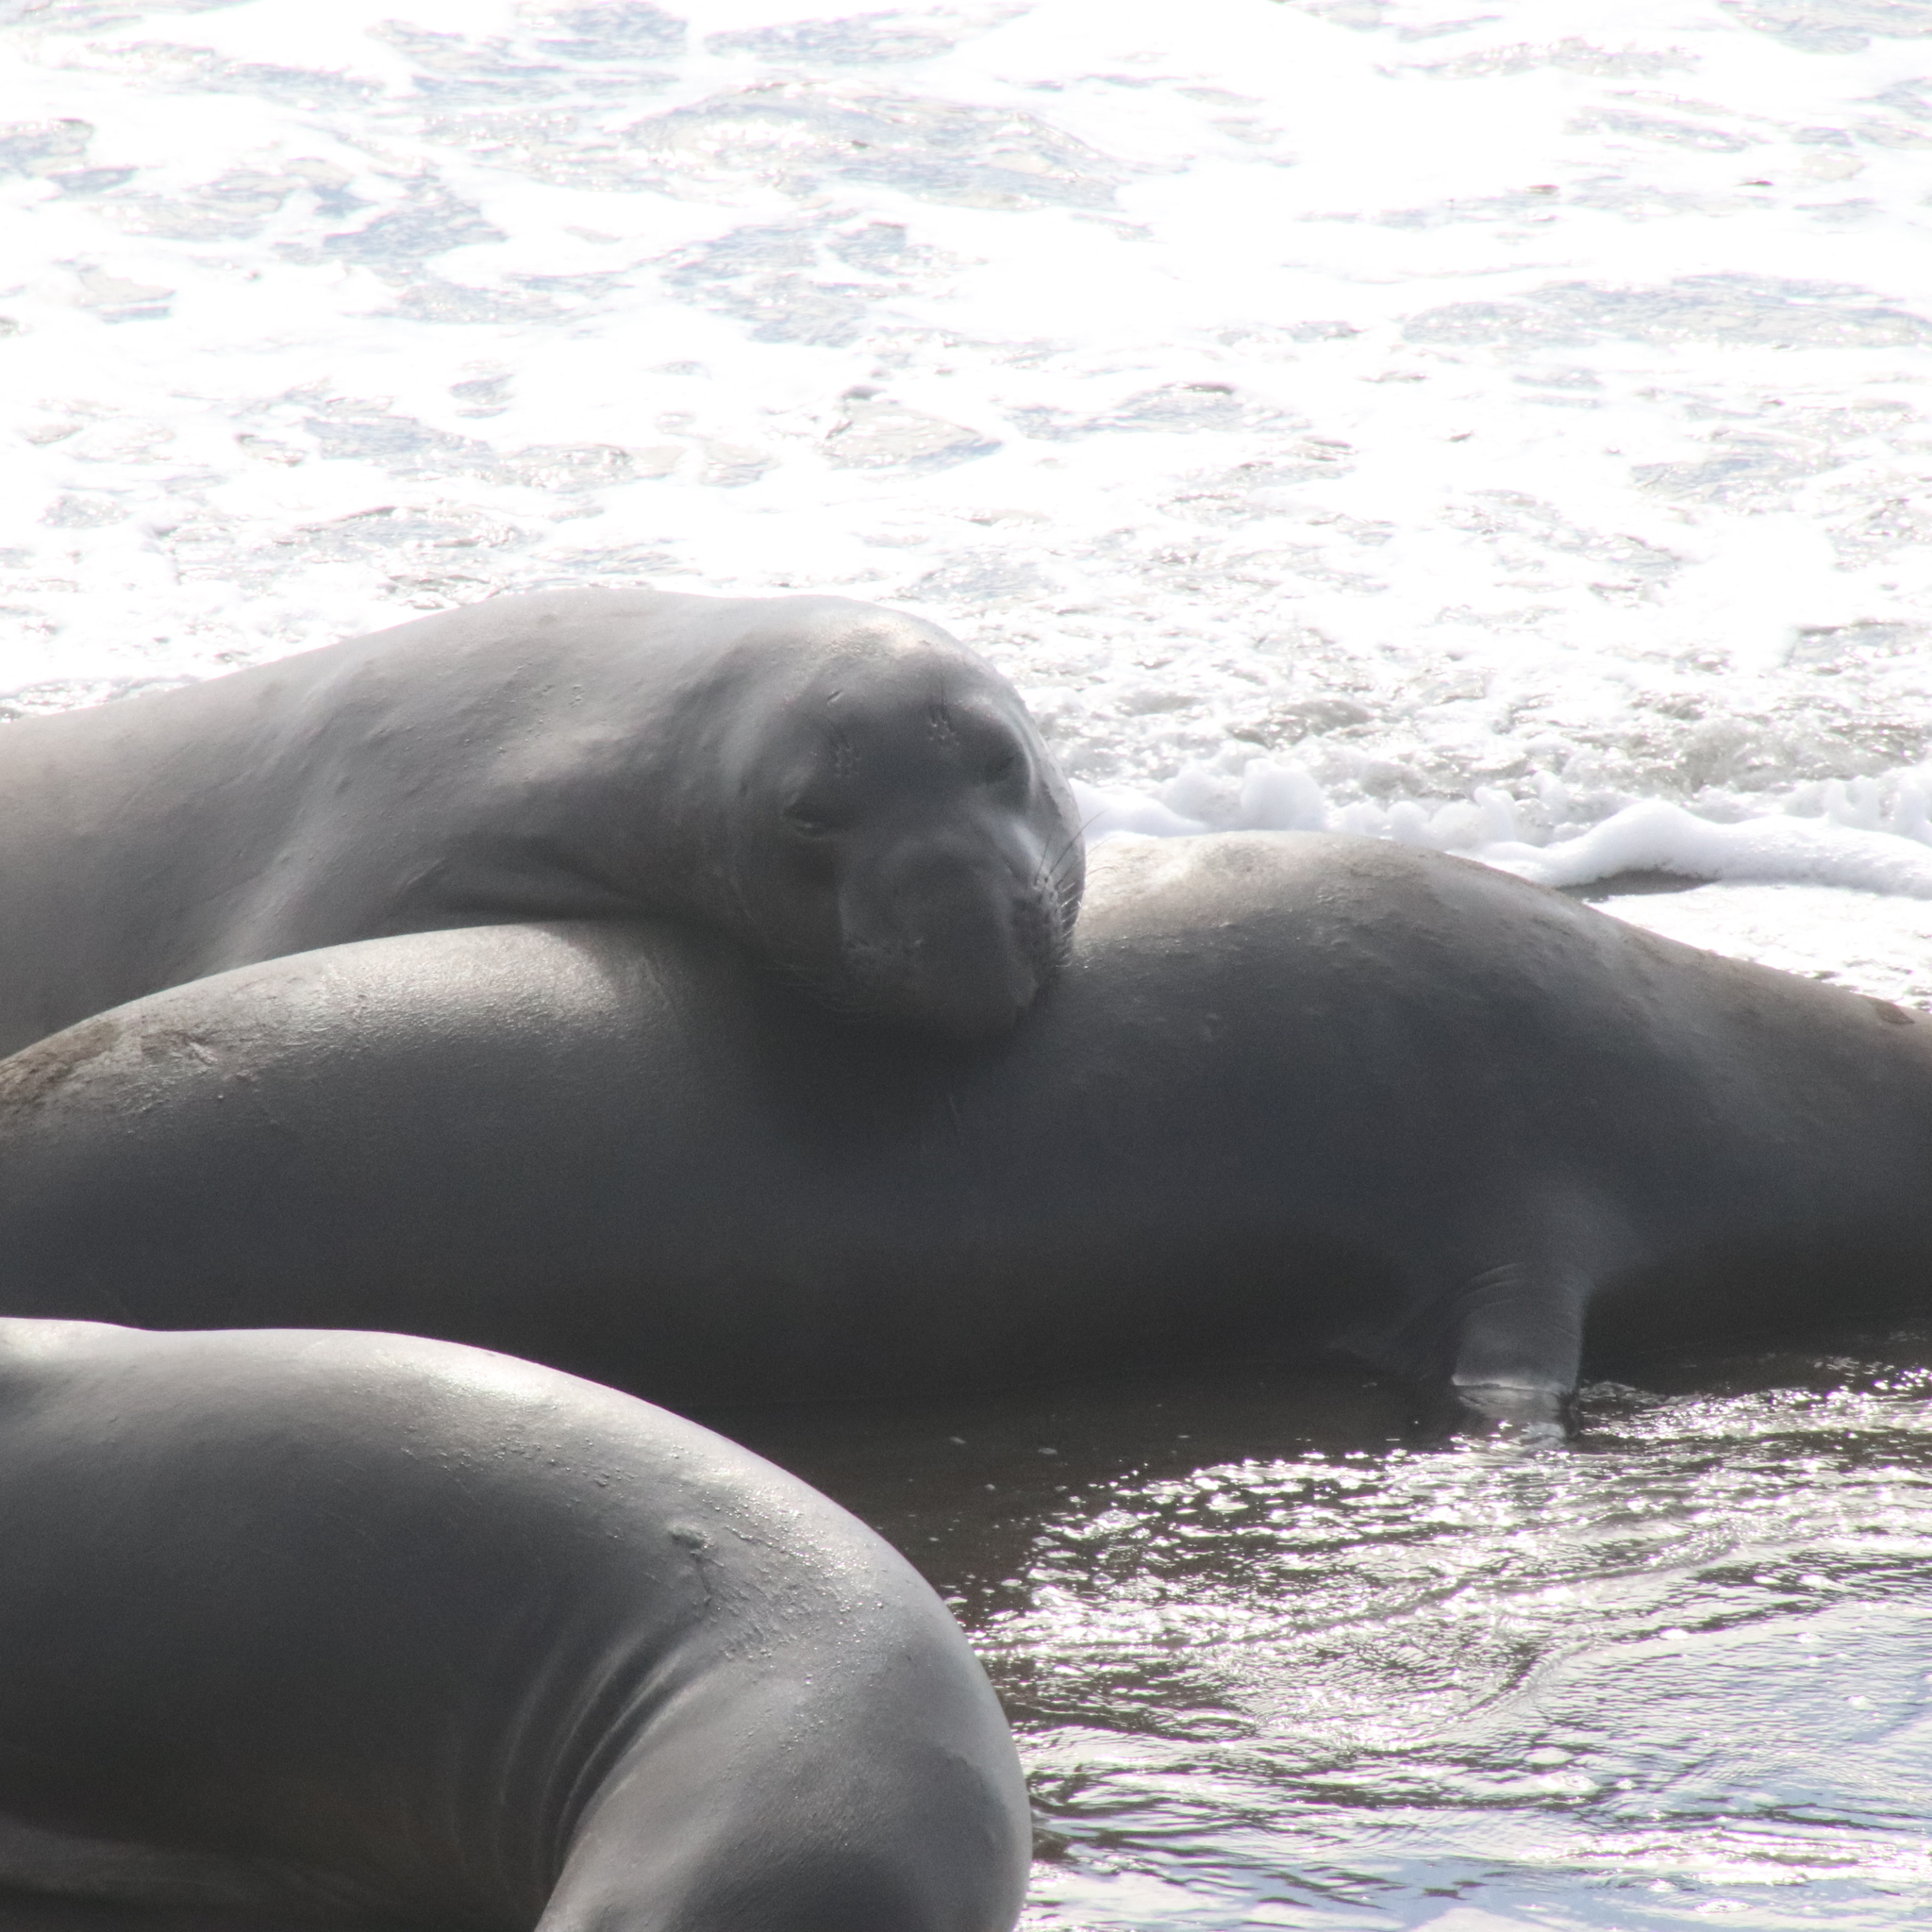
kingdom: Animalia
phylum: Chordata
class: Mammalia
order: Carnivora
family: Phocidae
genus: Mirounga
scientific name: Mirounga angustirostris
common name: Northern elephant seal
